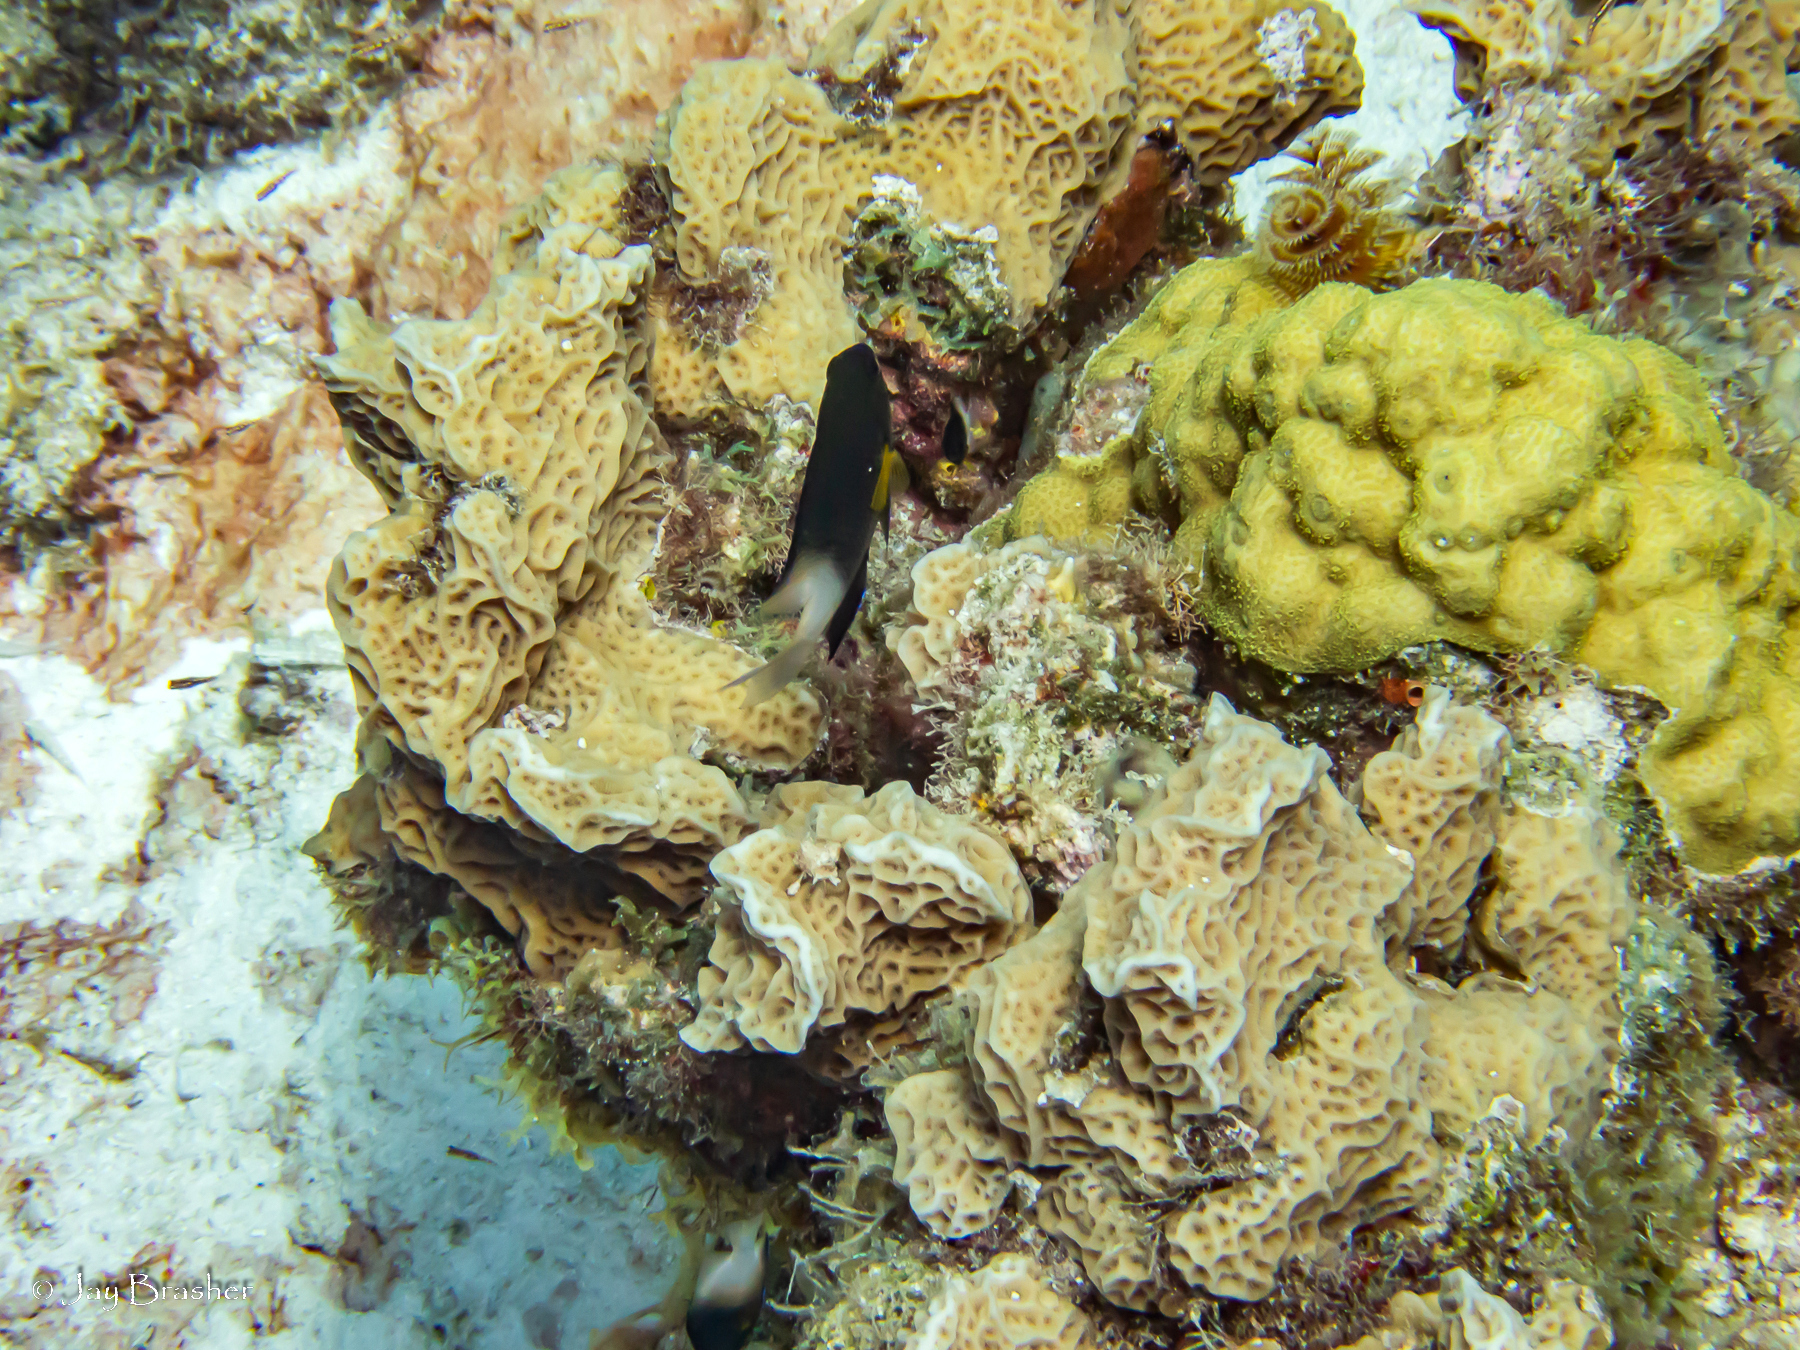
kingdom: Animalia
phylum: Cnidaria
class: Anthozoa
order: Scleractinia
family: Poritidae
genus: Porites
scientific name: Porites astreoides
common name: Mustard hill coral
